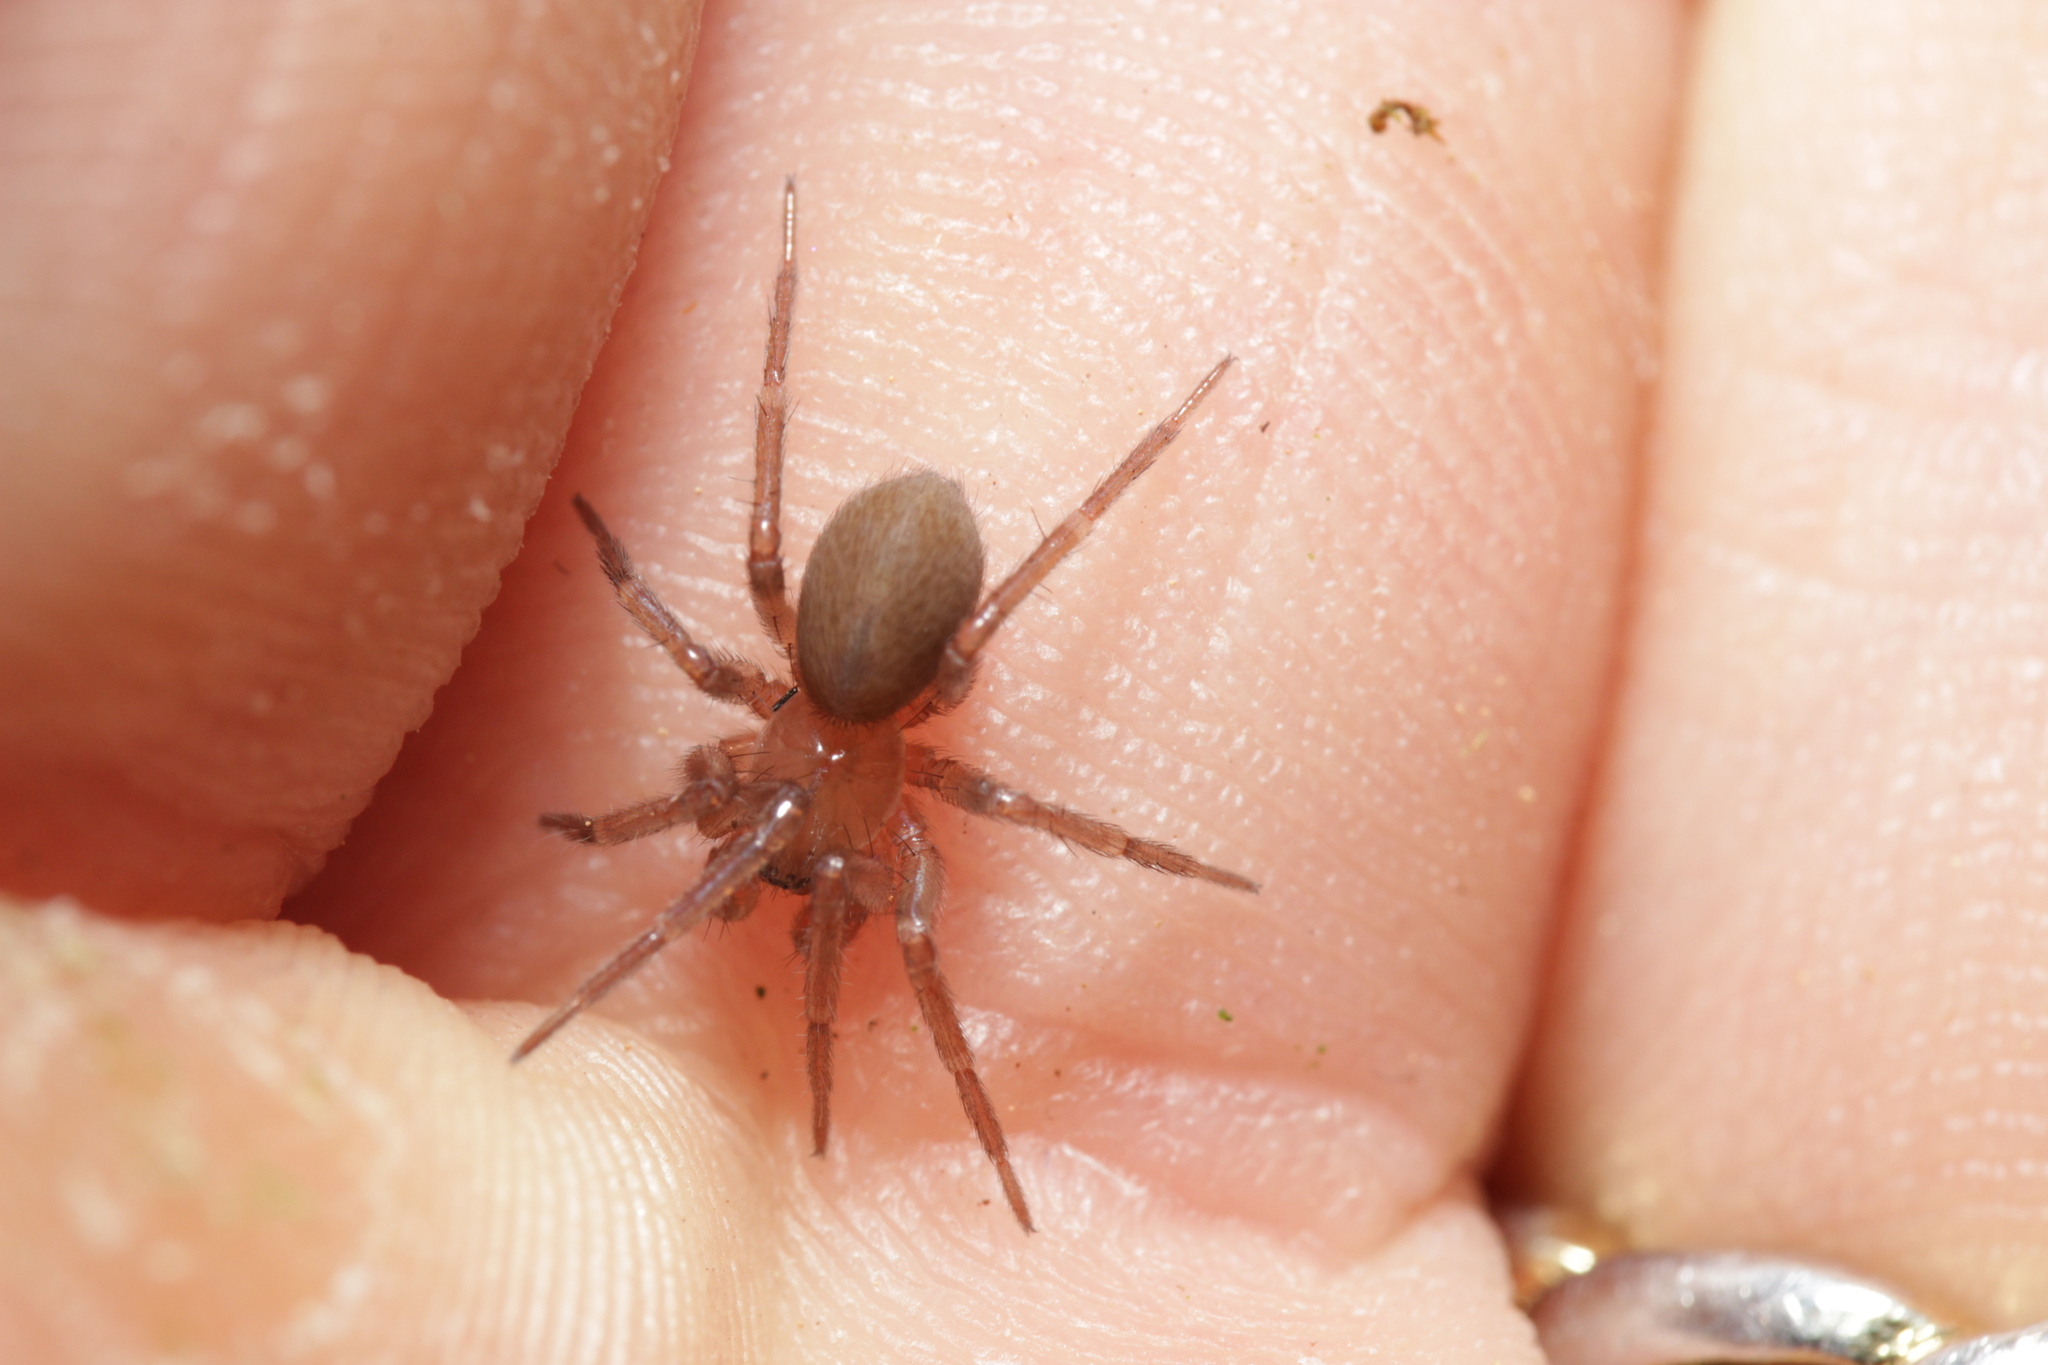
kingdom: Animalia
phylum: Arthropoda
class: Arachnida
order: Araneae
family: Hahniidae
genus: Cicurina
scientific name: Cicurina cicur
